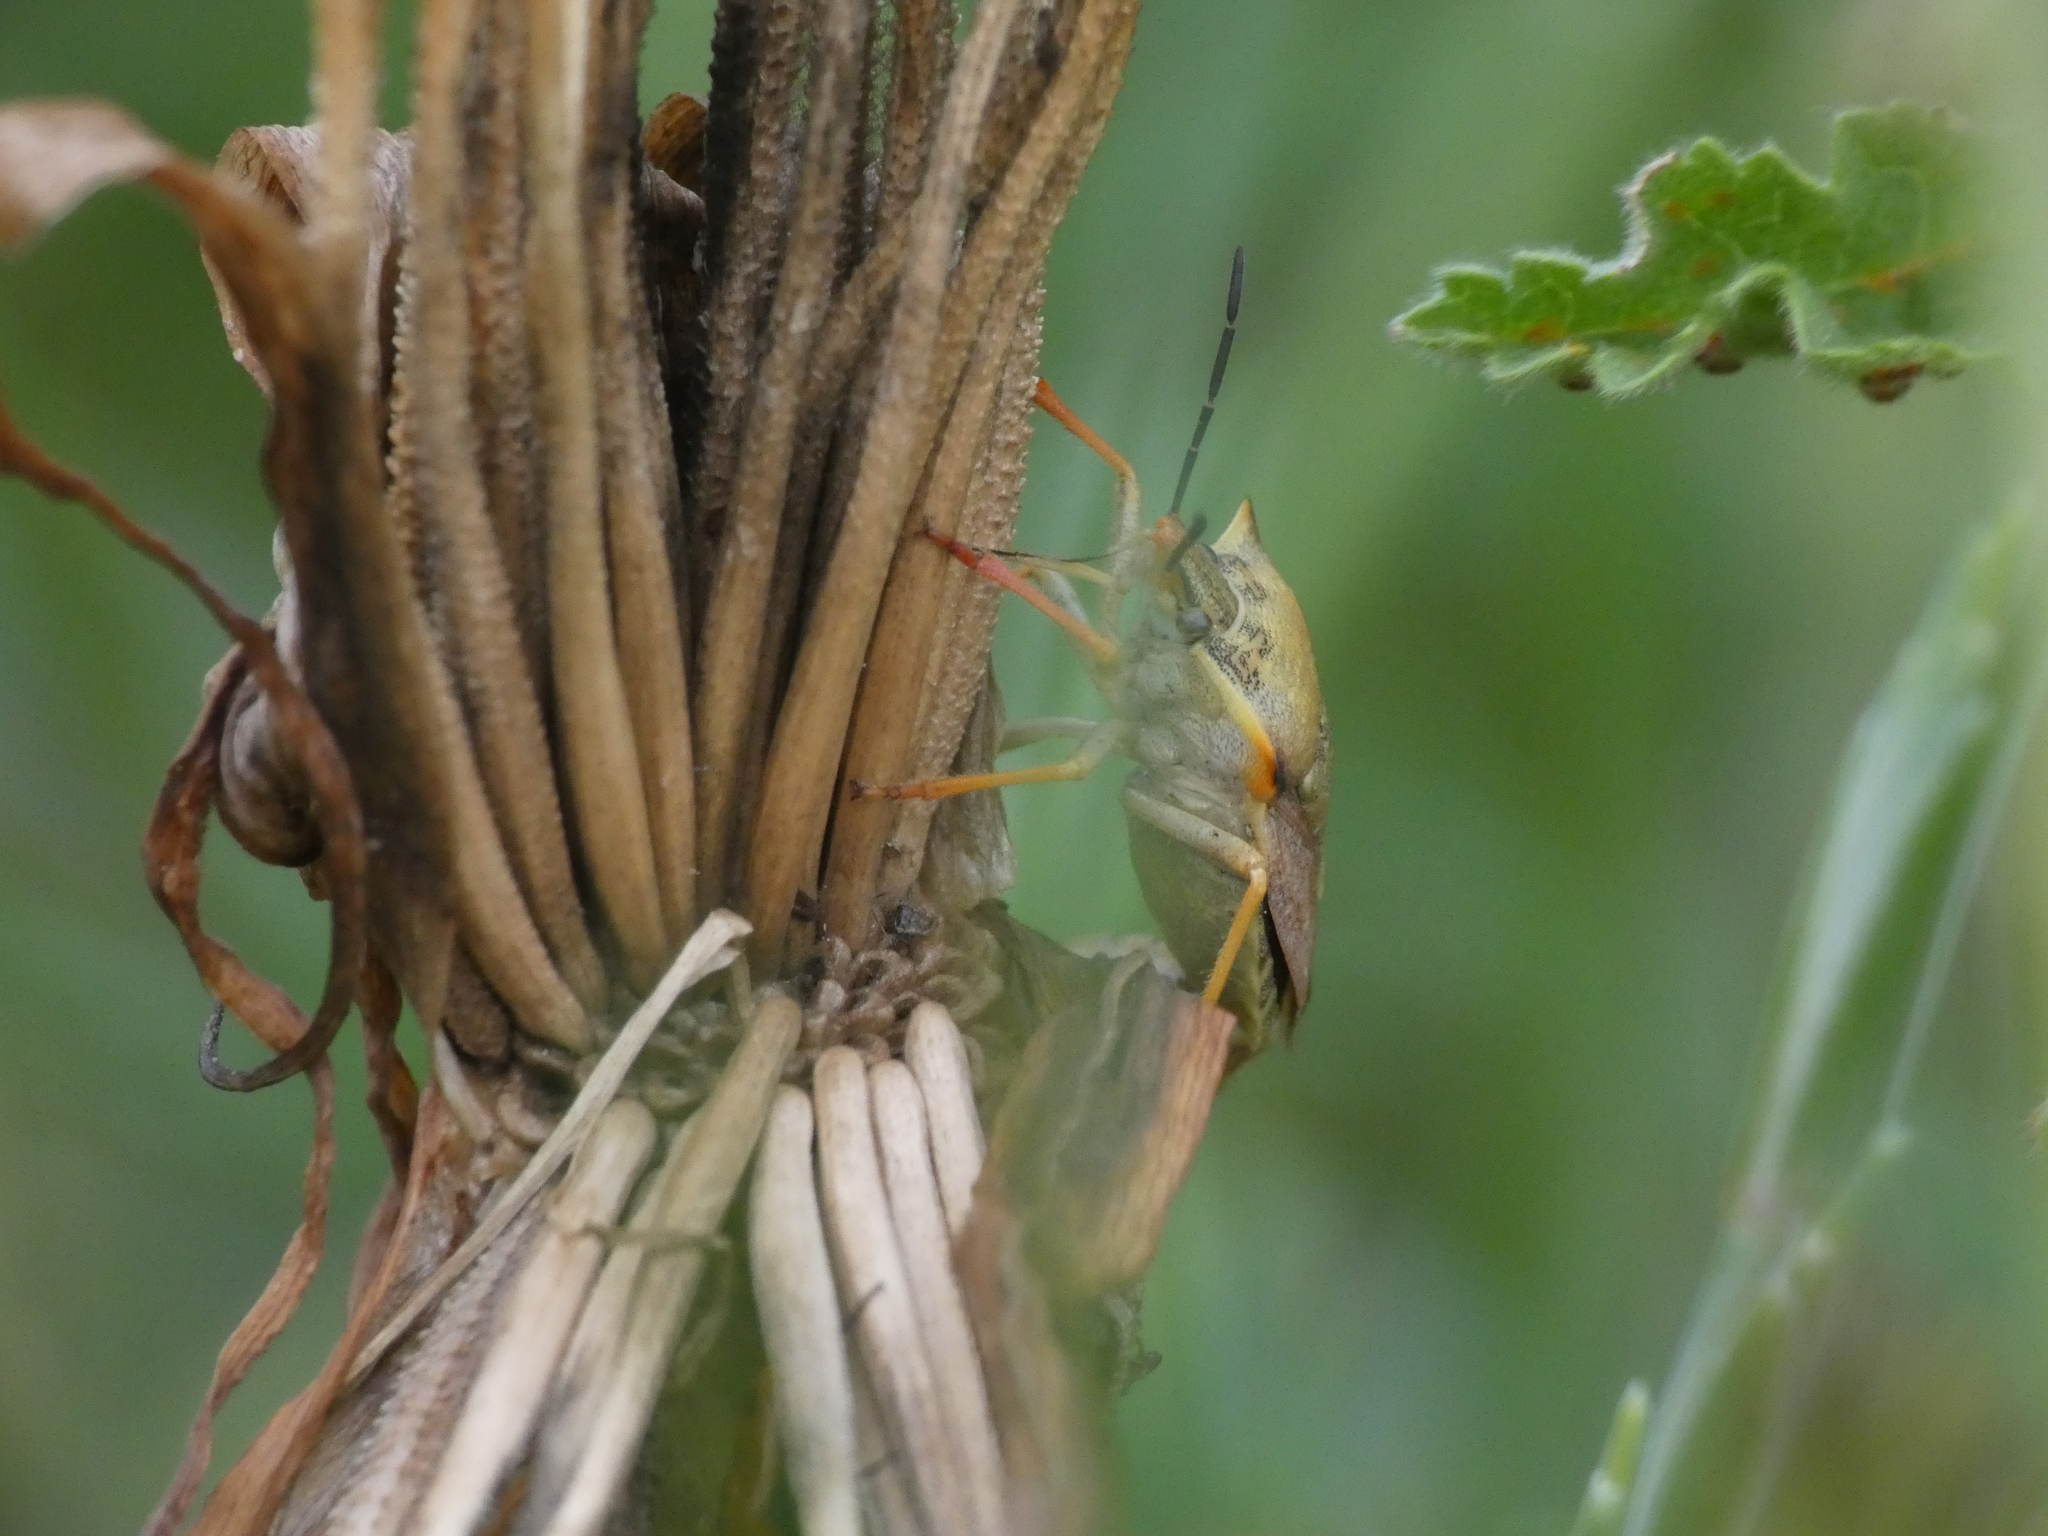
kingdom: Animalia
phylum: Arthropoda
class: Insecta
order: Hemiptera
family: Pentatomidae
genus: Carpocoris
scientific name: Carpocoris mediterraneus
